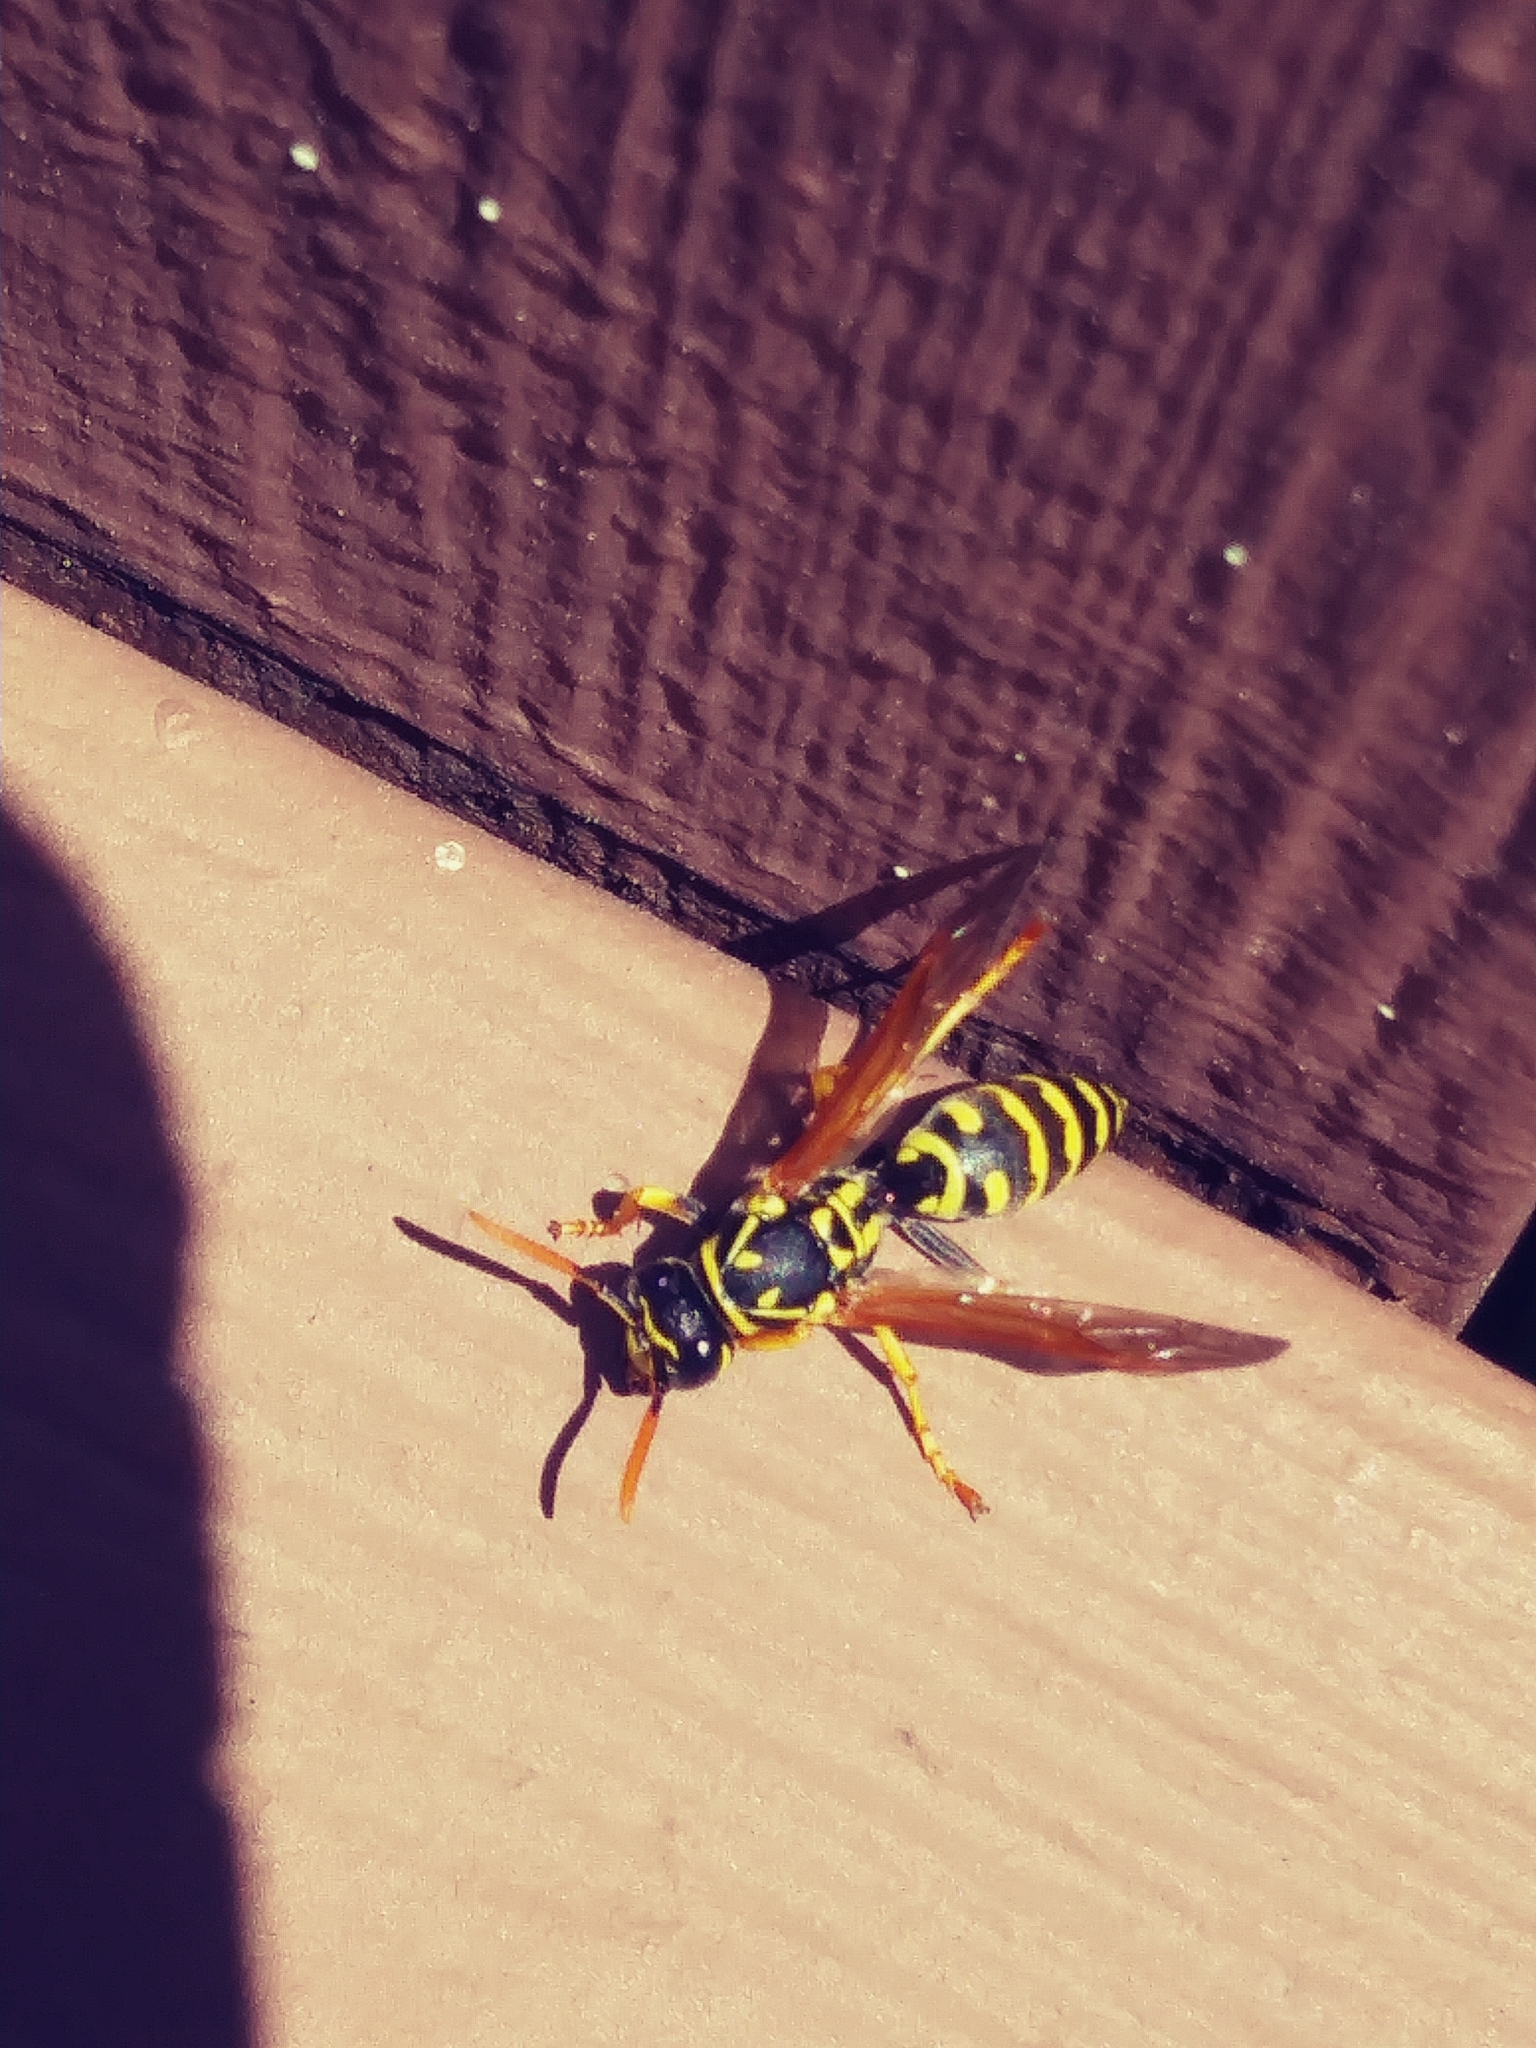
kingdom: Animalia
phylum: Arthropoda
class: Insecta
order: Hymenoptera
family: Eumenidae
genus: Polistes
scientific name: Polistes dominula
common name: Paper wasp
